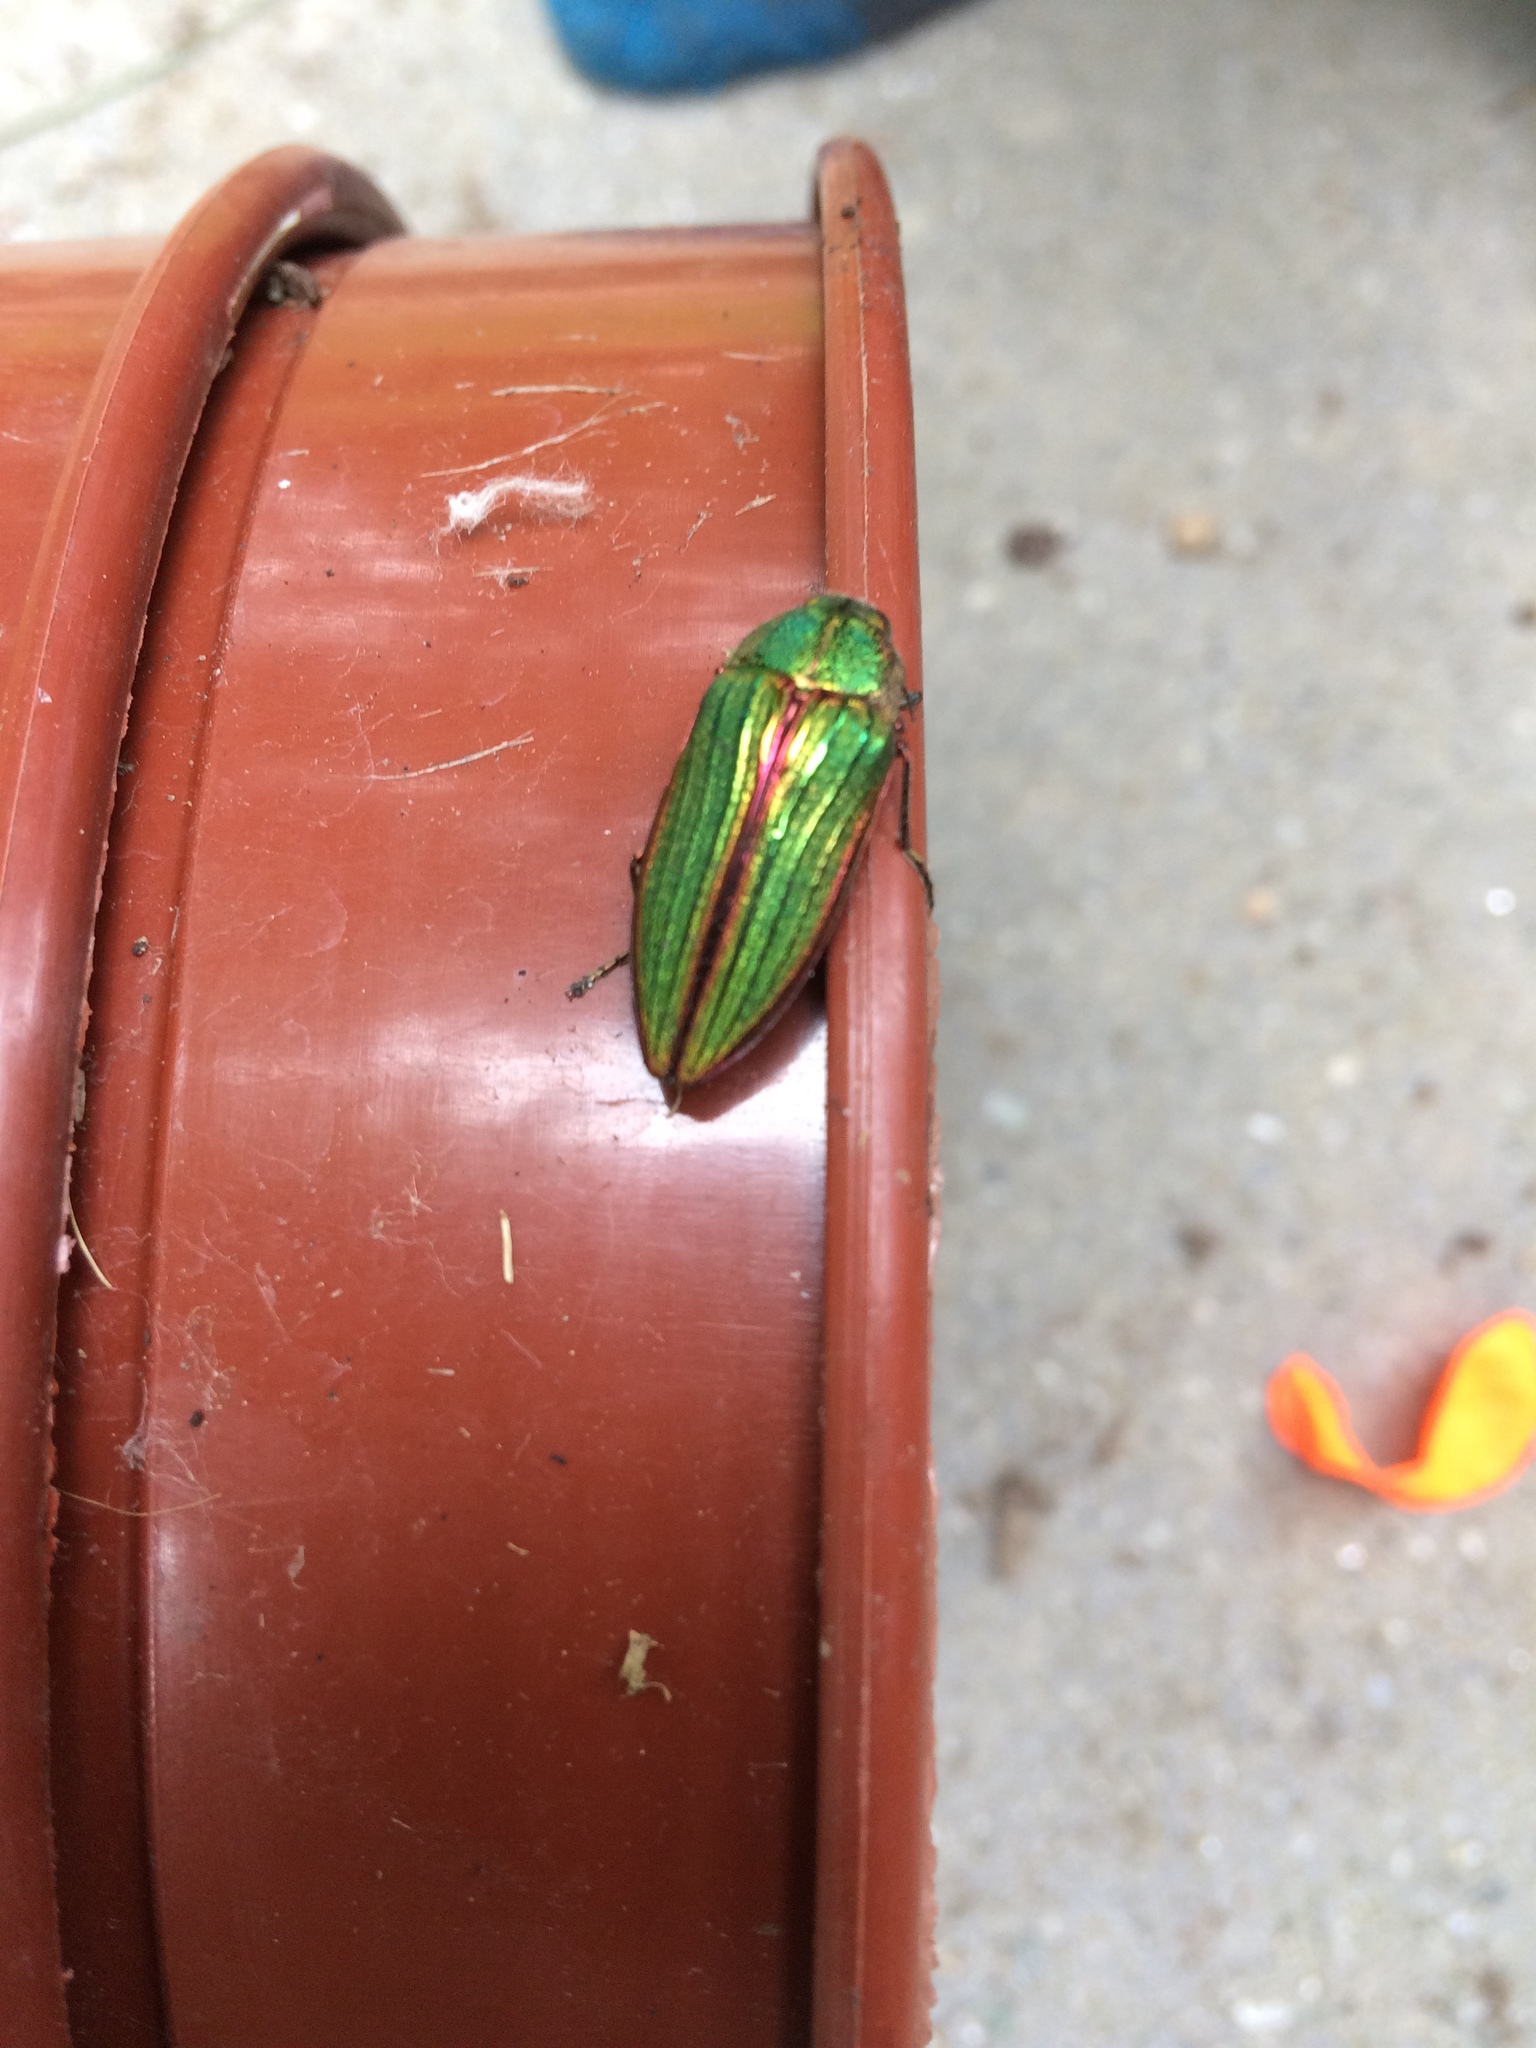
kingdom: Animalia
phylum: Arthropoda
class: Insecta
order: Coleoptera
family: Buprestidae
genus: Buprestis
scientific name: Buprestis aurulenta
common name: Golden buprestid
